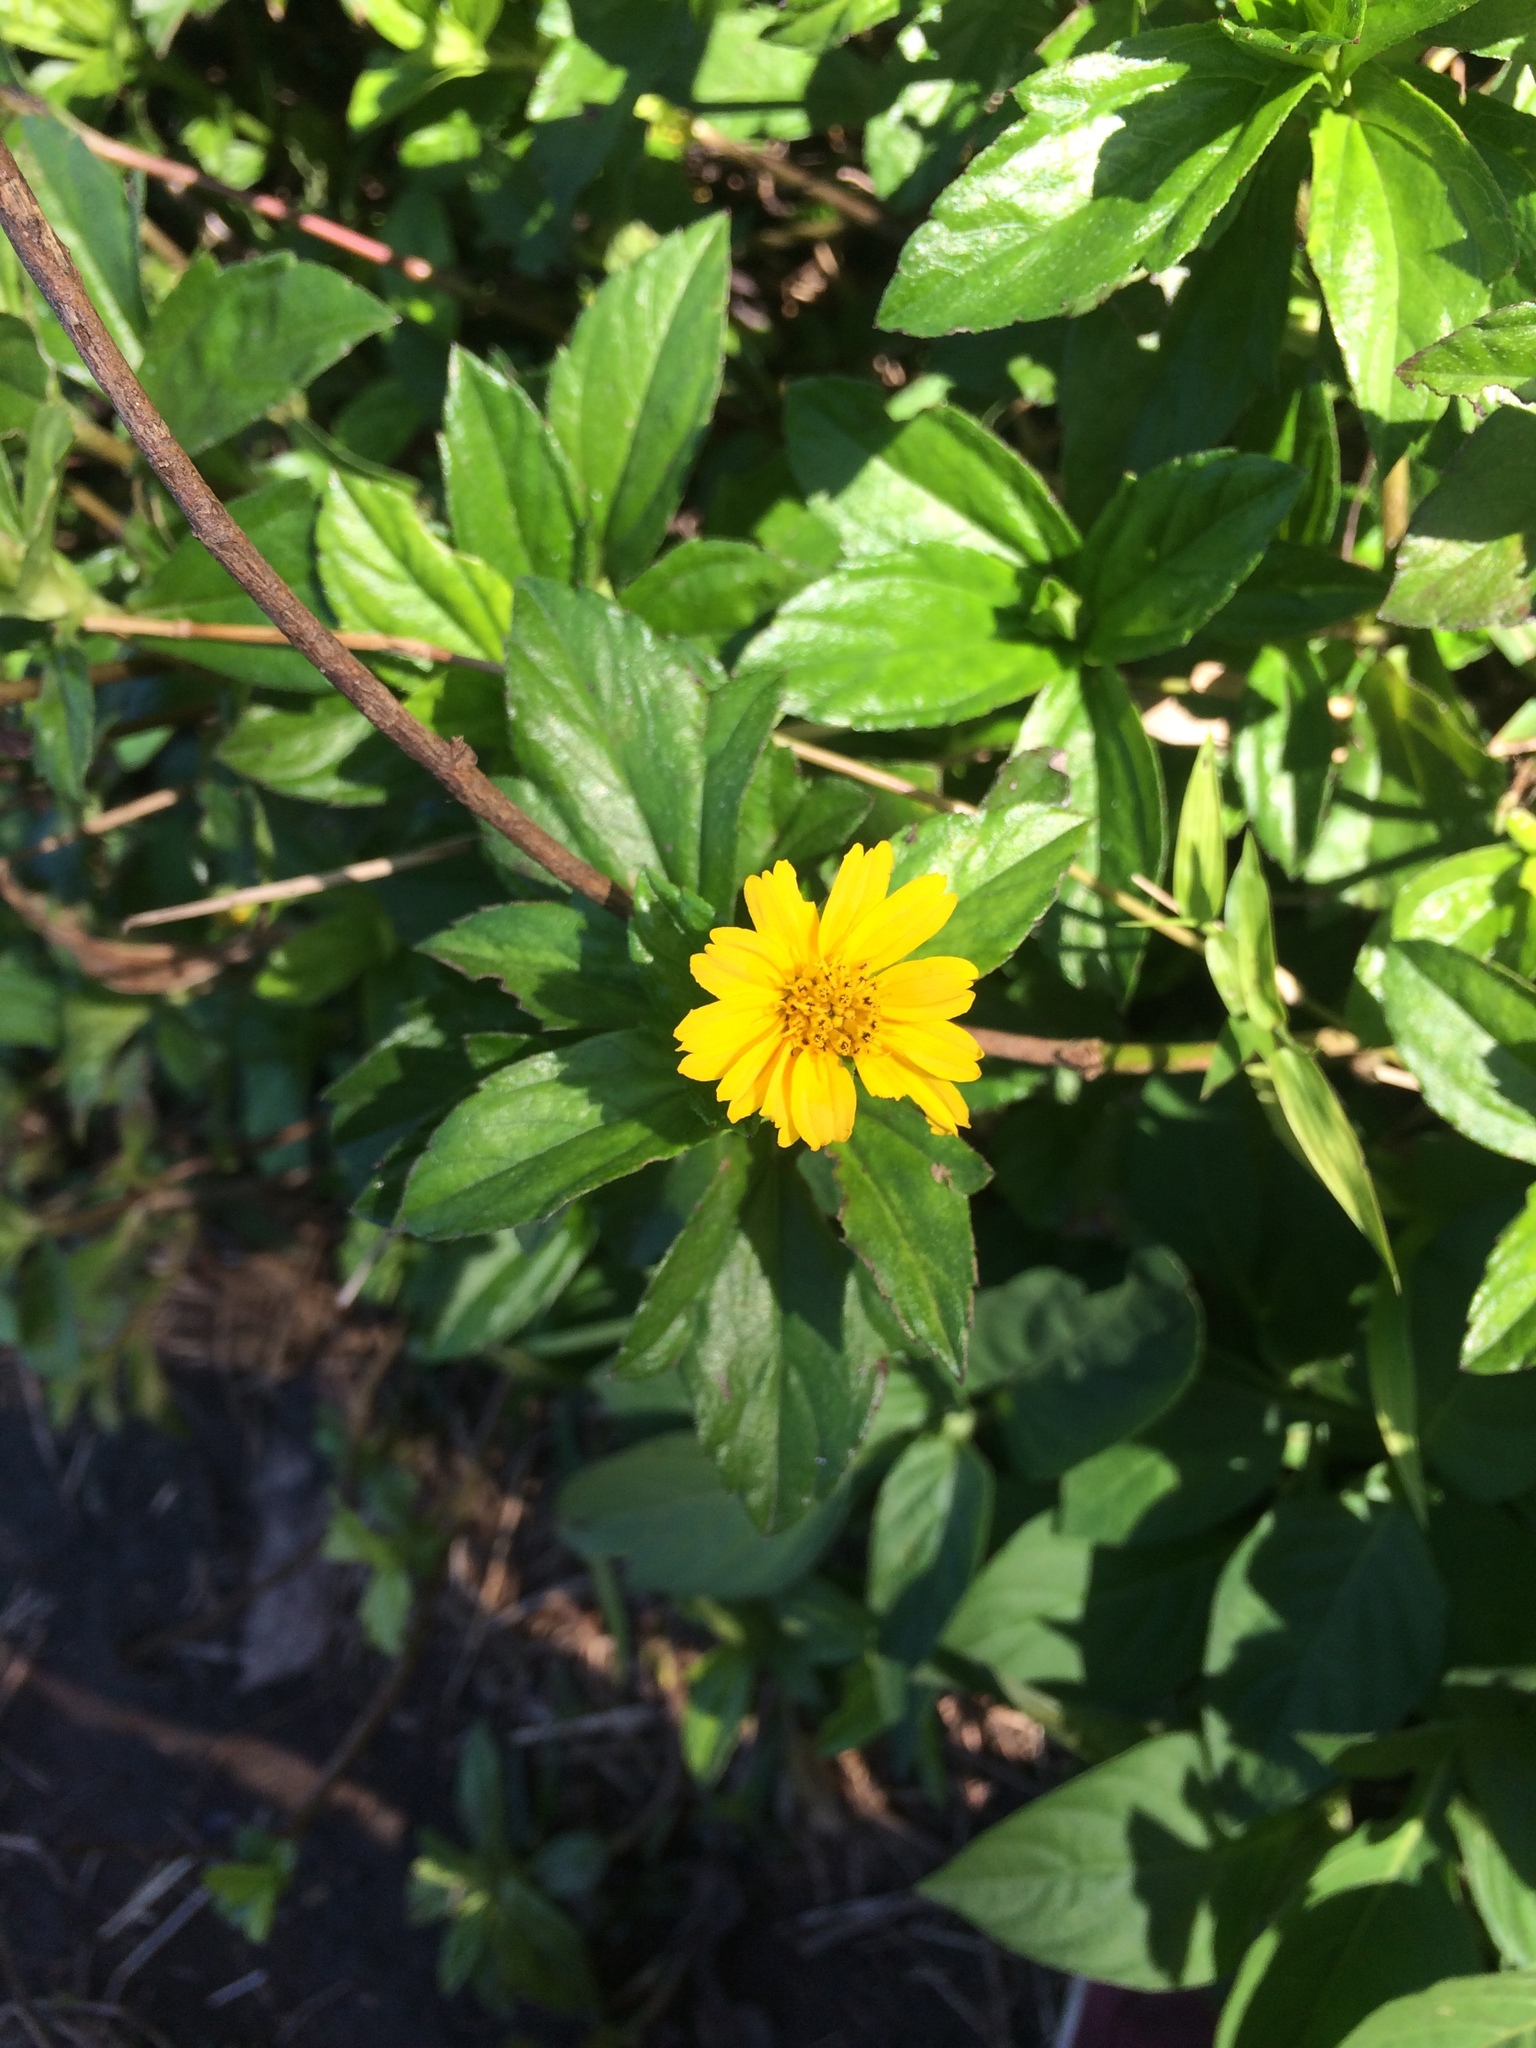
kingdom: Plantae
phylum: Tracheophyta
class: Magnoliopsida
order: Asterales
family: Asteraceae
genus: Sphagneticola
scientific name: Sphagneticola trilobata
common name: Bay biscayne creeping-oxeye
